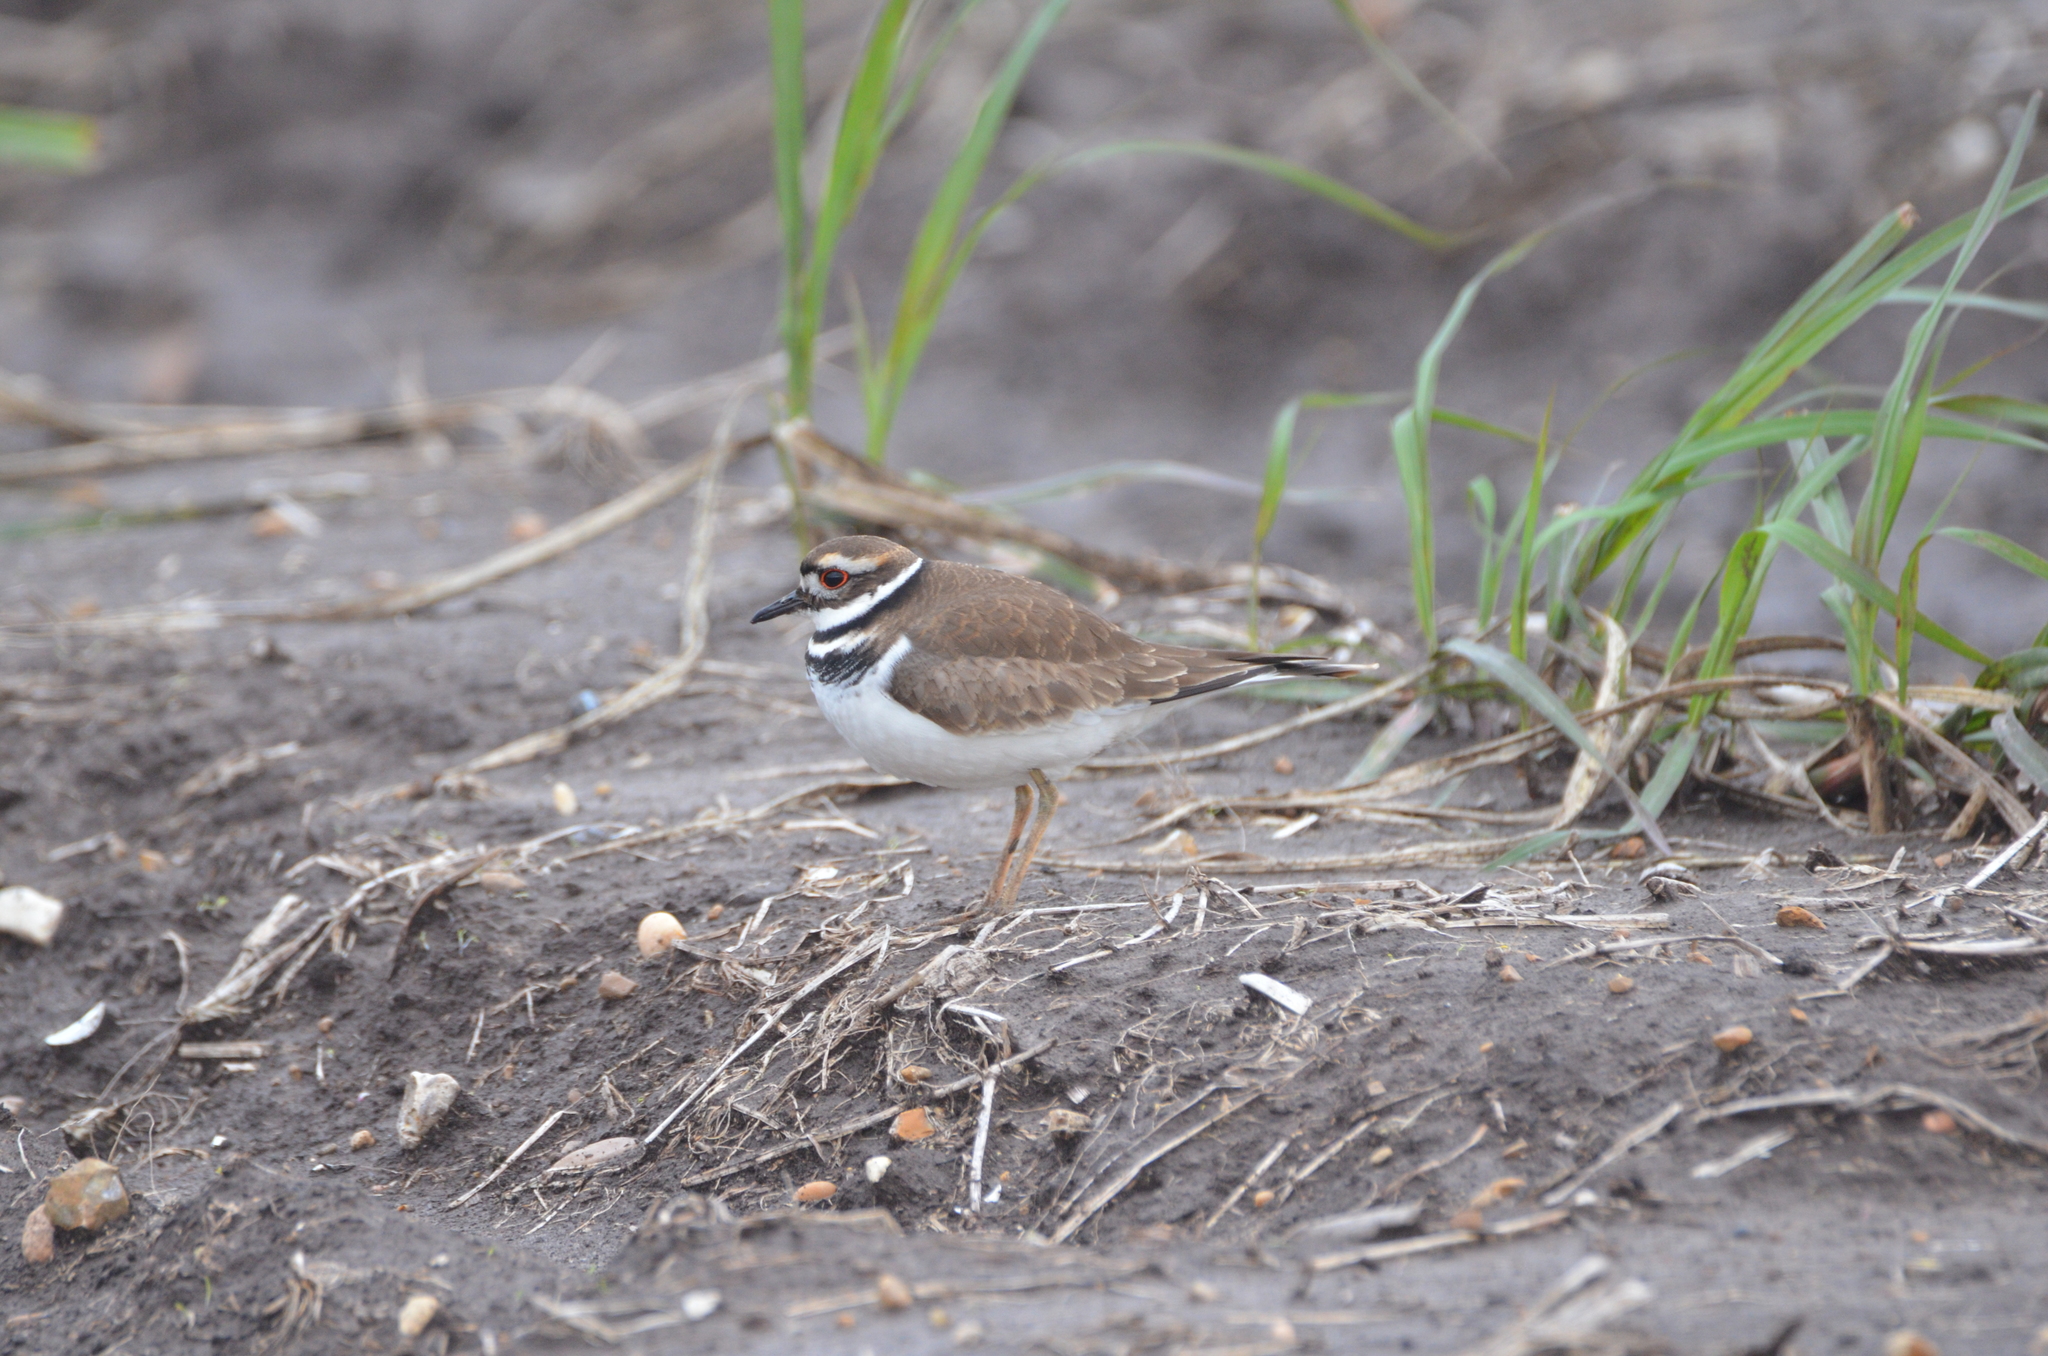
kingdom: Animalia
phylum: Chordata
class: Aves
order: Charadriiformes
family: Charadriidae
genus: Charadrius
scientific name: Charadrius vociferus
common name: Killdeer
